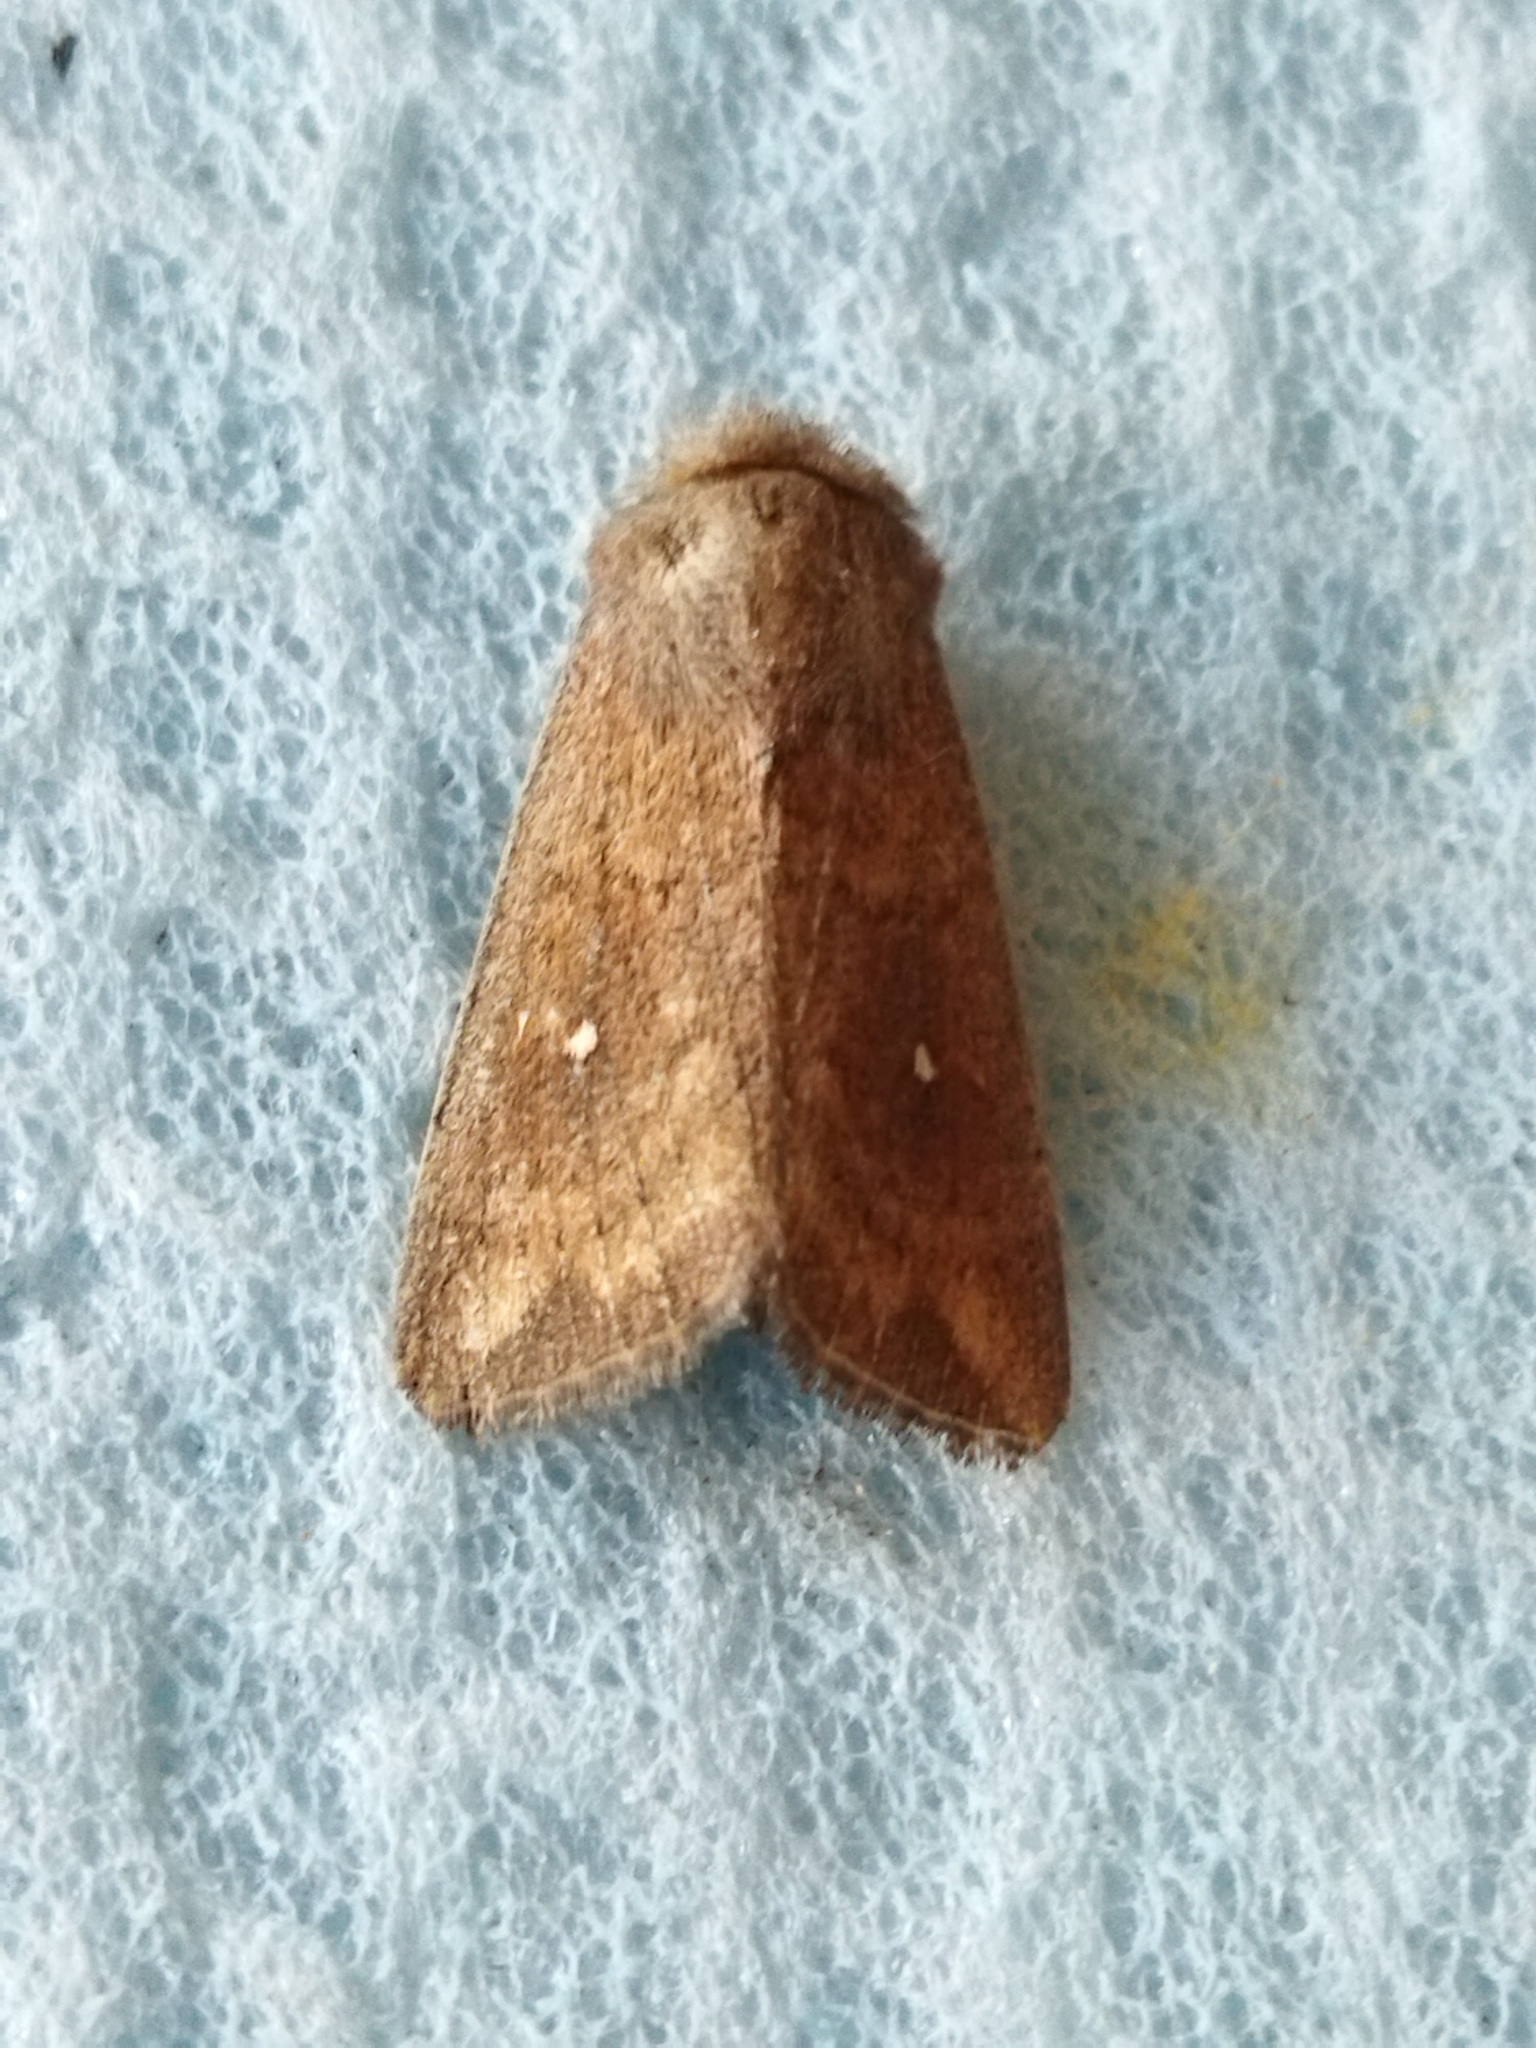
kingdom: Animalia
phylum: Arthropoda
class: Insecta
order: Lepidoptera
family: Noctuidae
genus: Mythimna
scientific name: Mythimna albipuncta
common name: White-point
